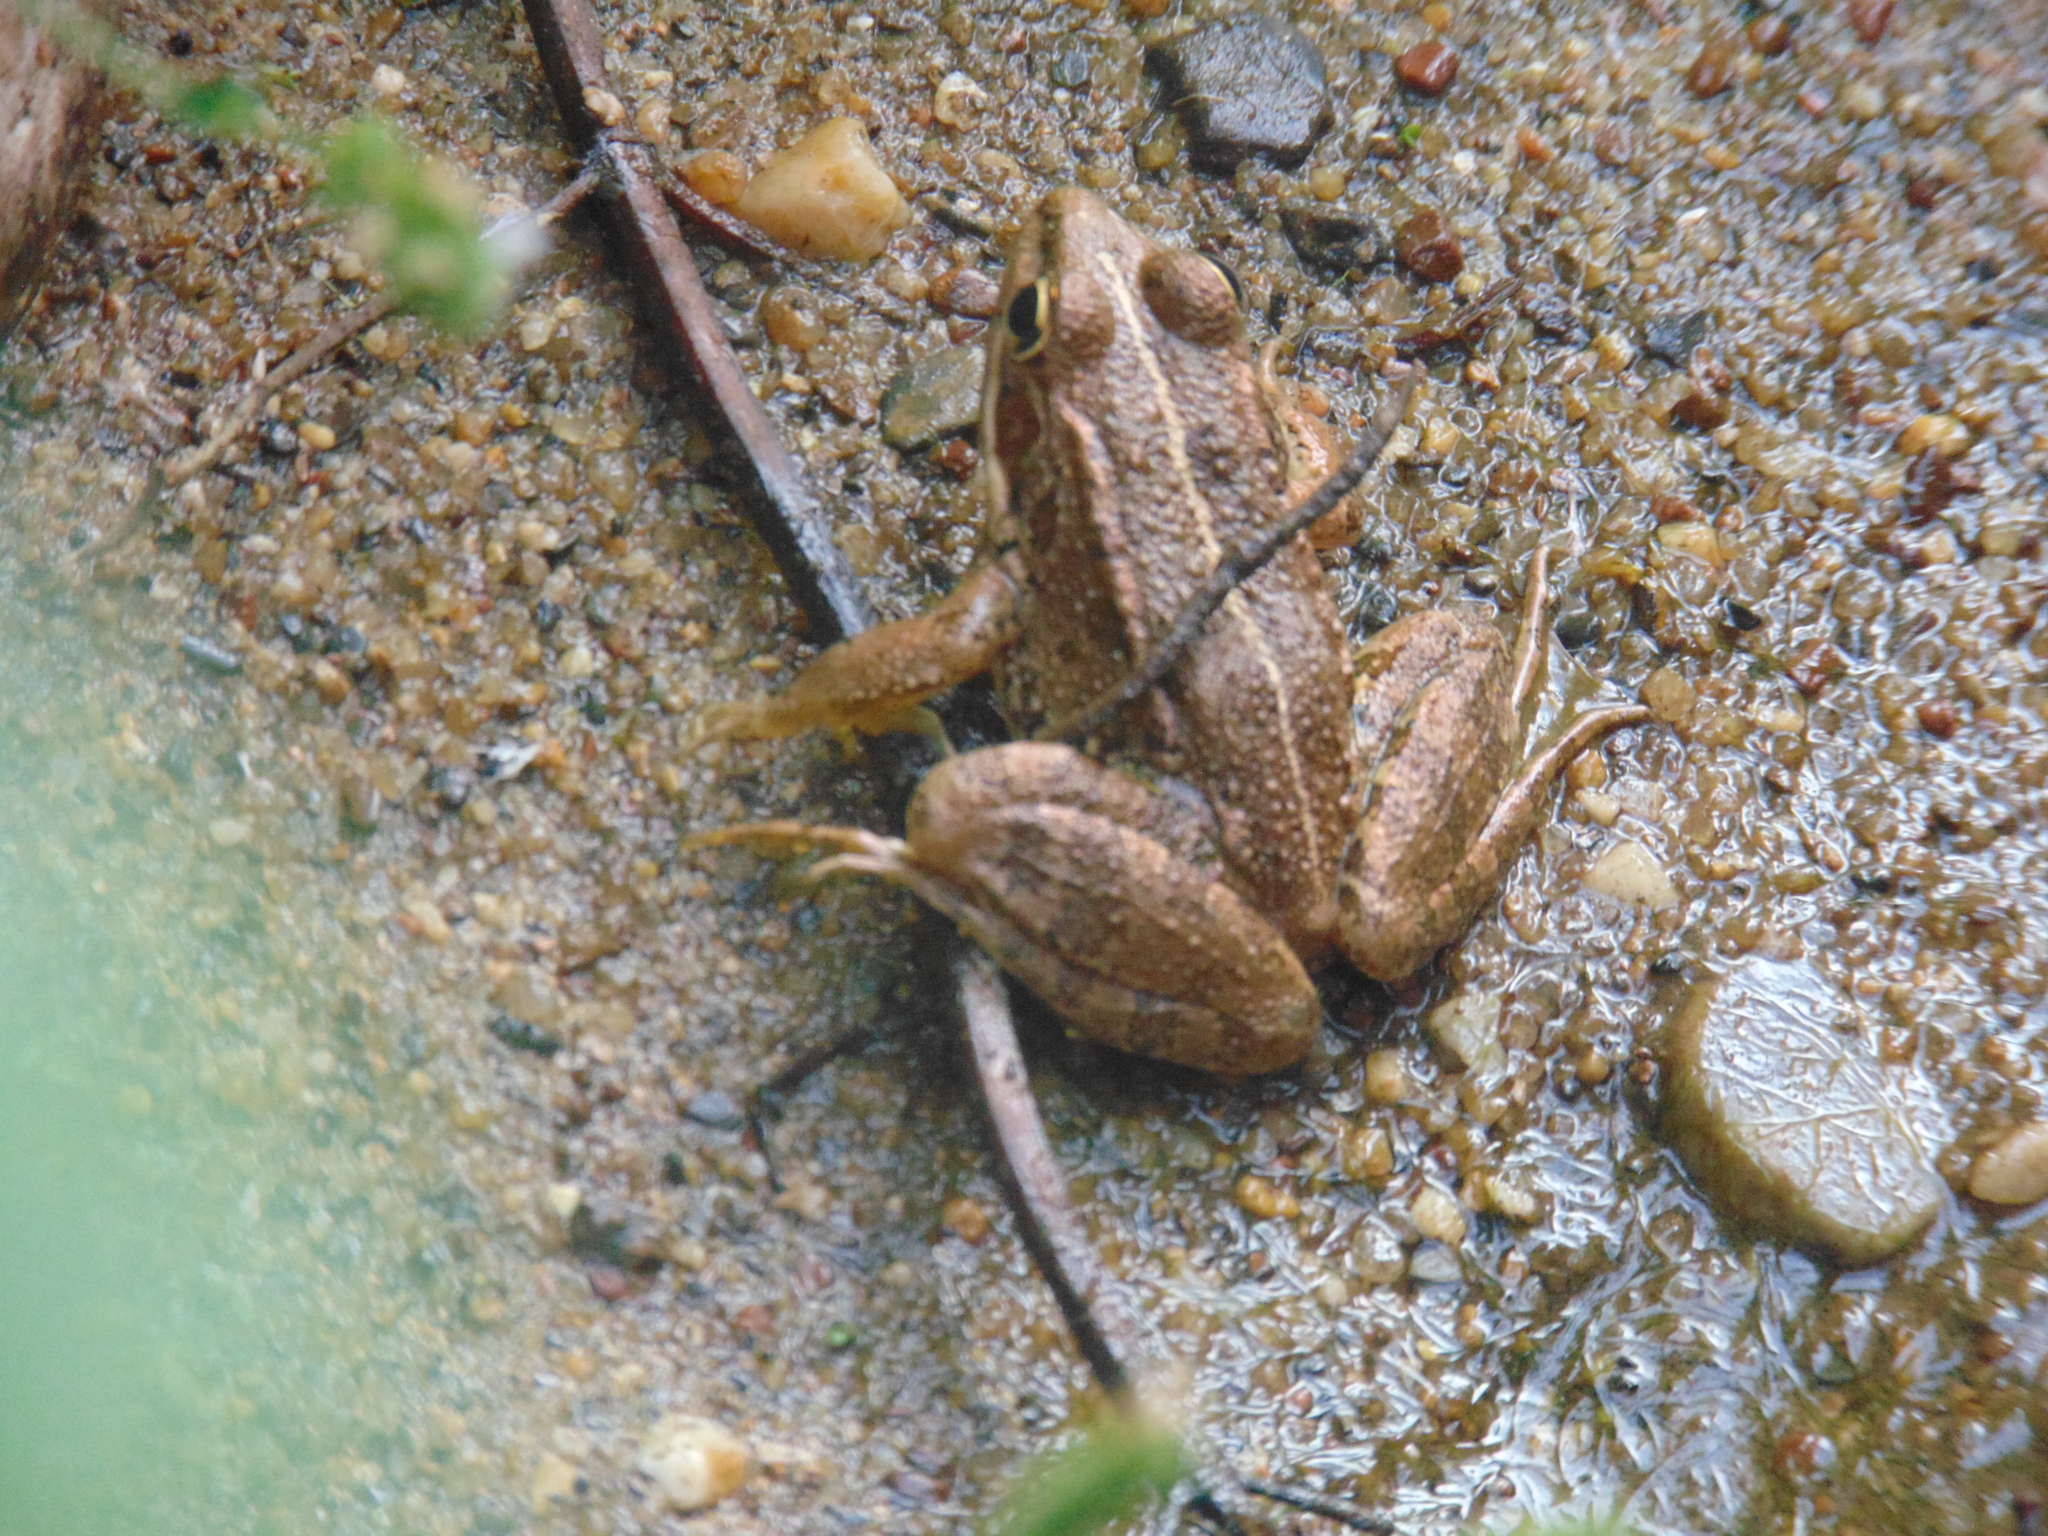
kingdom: Animalia
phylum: Chordata
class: Amphibia
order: Anura
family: Ranidae
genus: Pelophylax
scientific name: Pelophylax perezi
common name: Perez's frog
